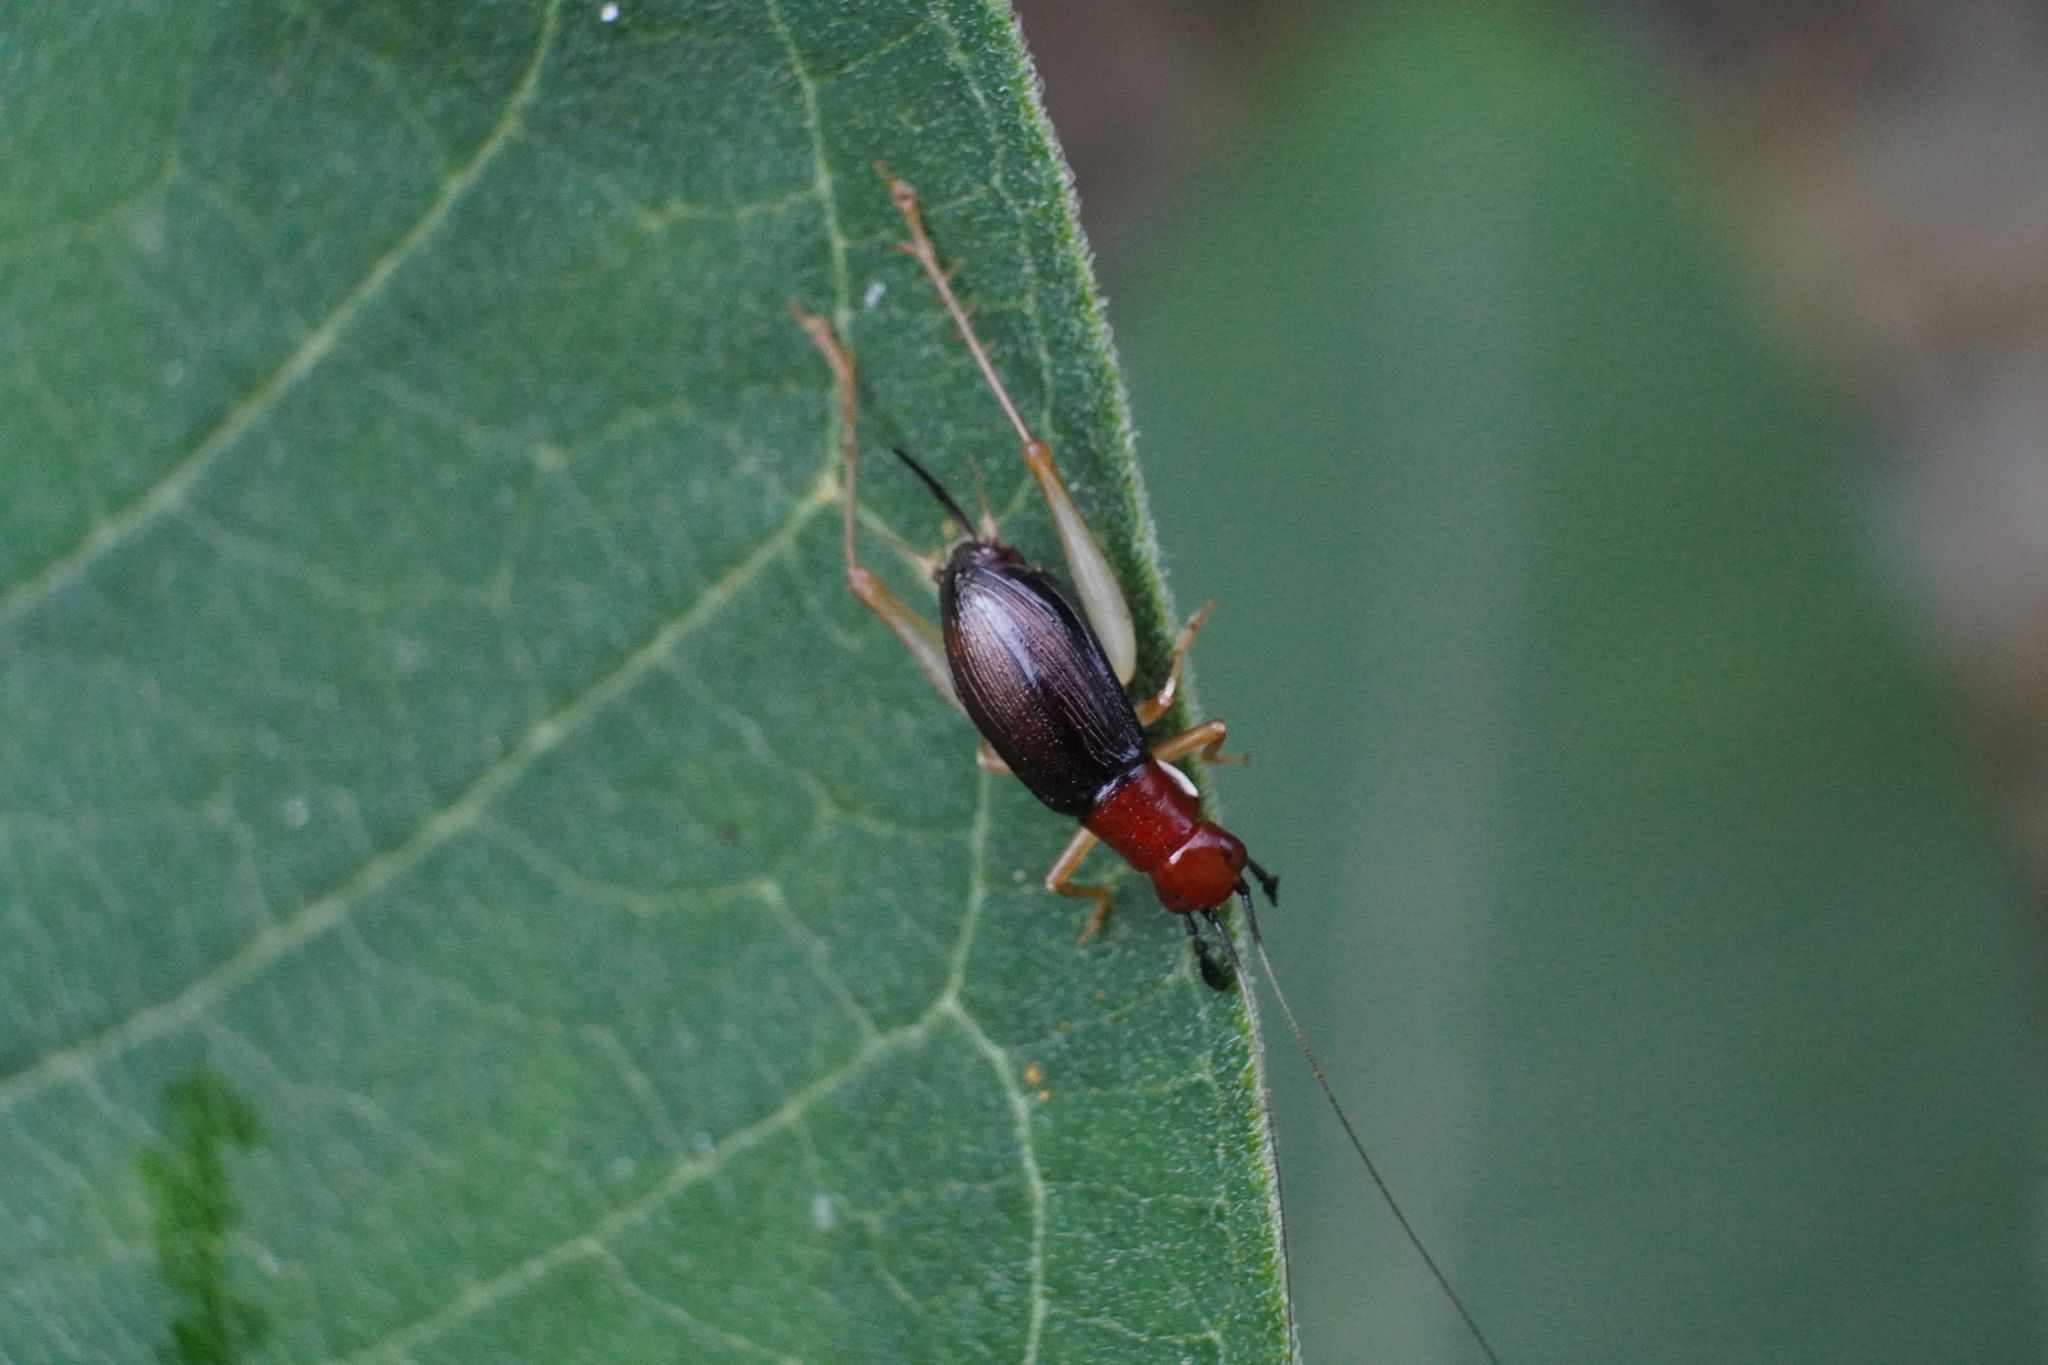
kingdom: Animalia
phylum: Arthropoda
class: Insecta
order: Orthoptera
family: Trigonidiidae
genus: Phyllopalpus
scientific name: Phyllopalpus pulchellus
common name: Handsome trig
